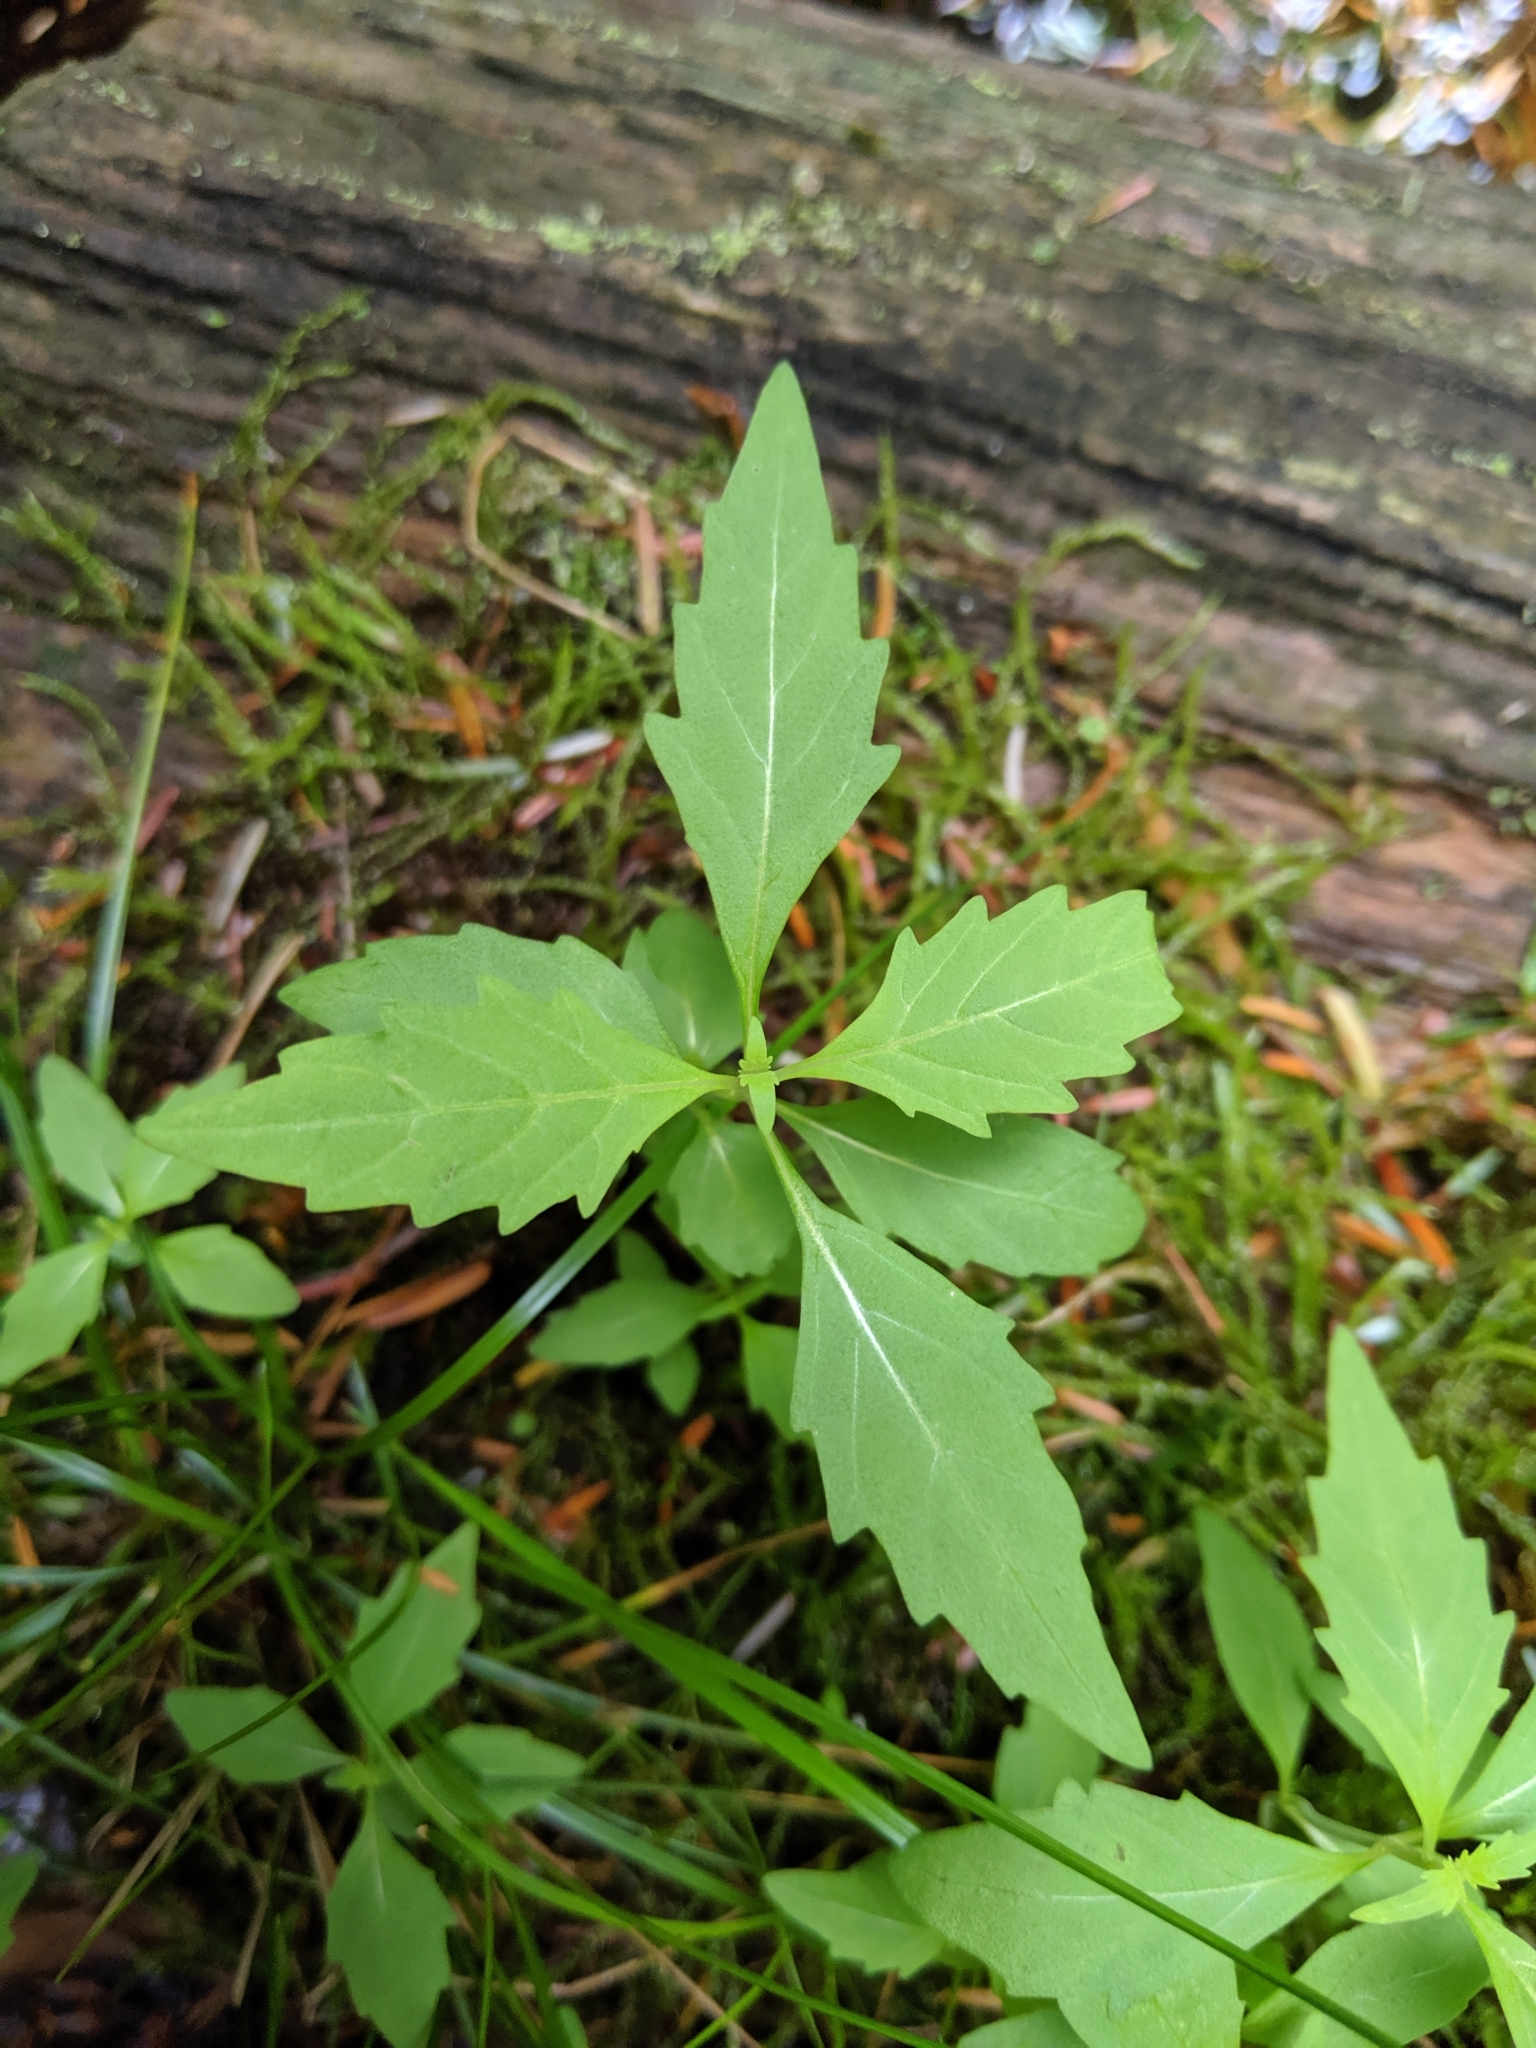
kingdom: Plantae
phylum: Tracheophyta
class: Magnoliopsida
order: Lamiales
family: Lamiaceae
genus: Lycopus
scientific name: Lycopus uniflorus
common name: Northern bugleweed
